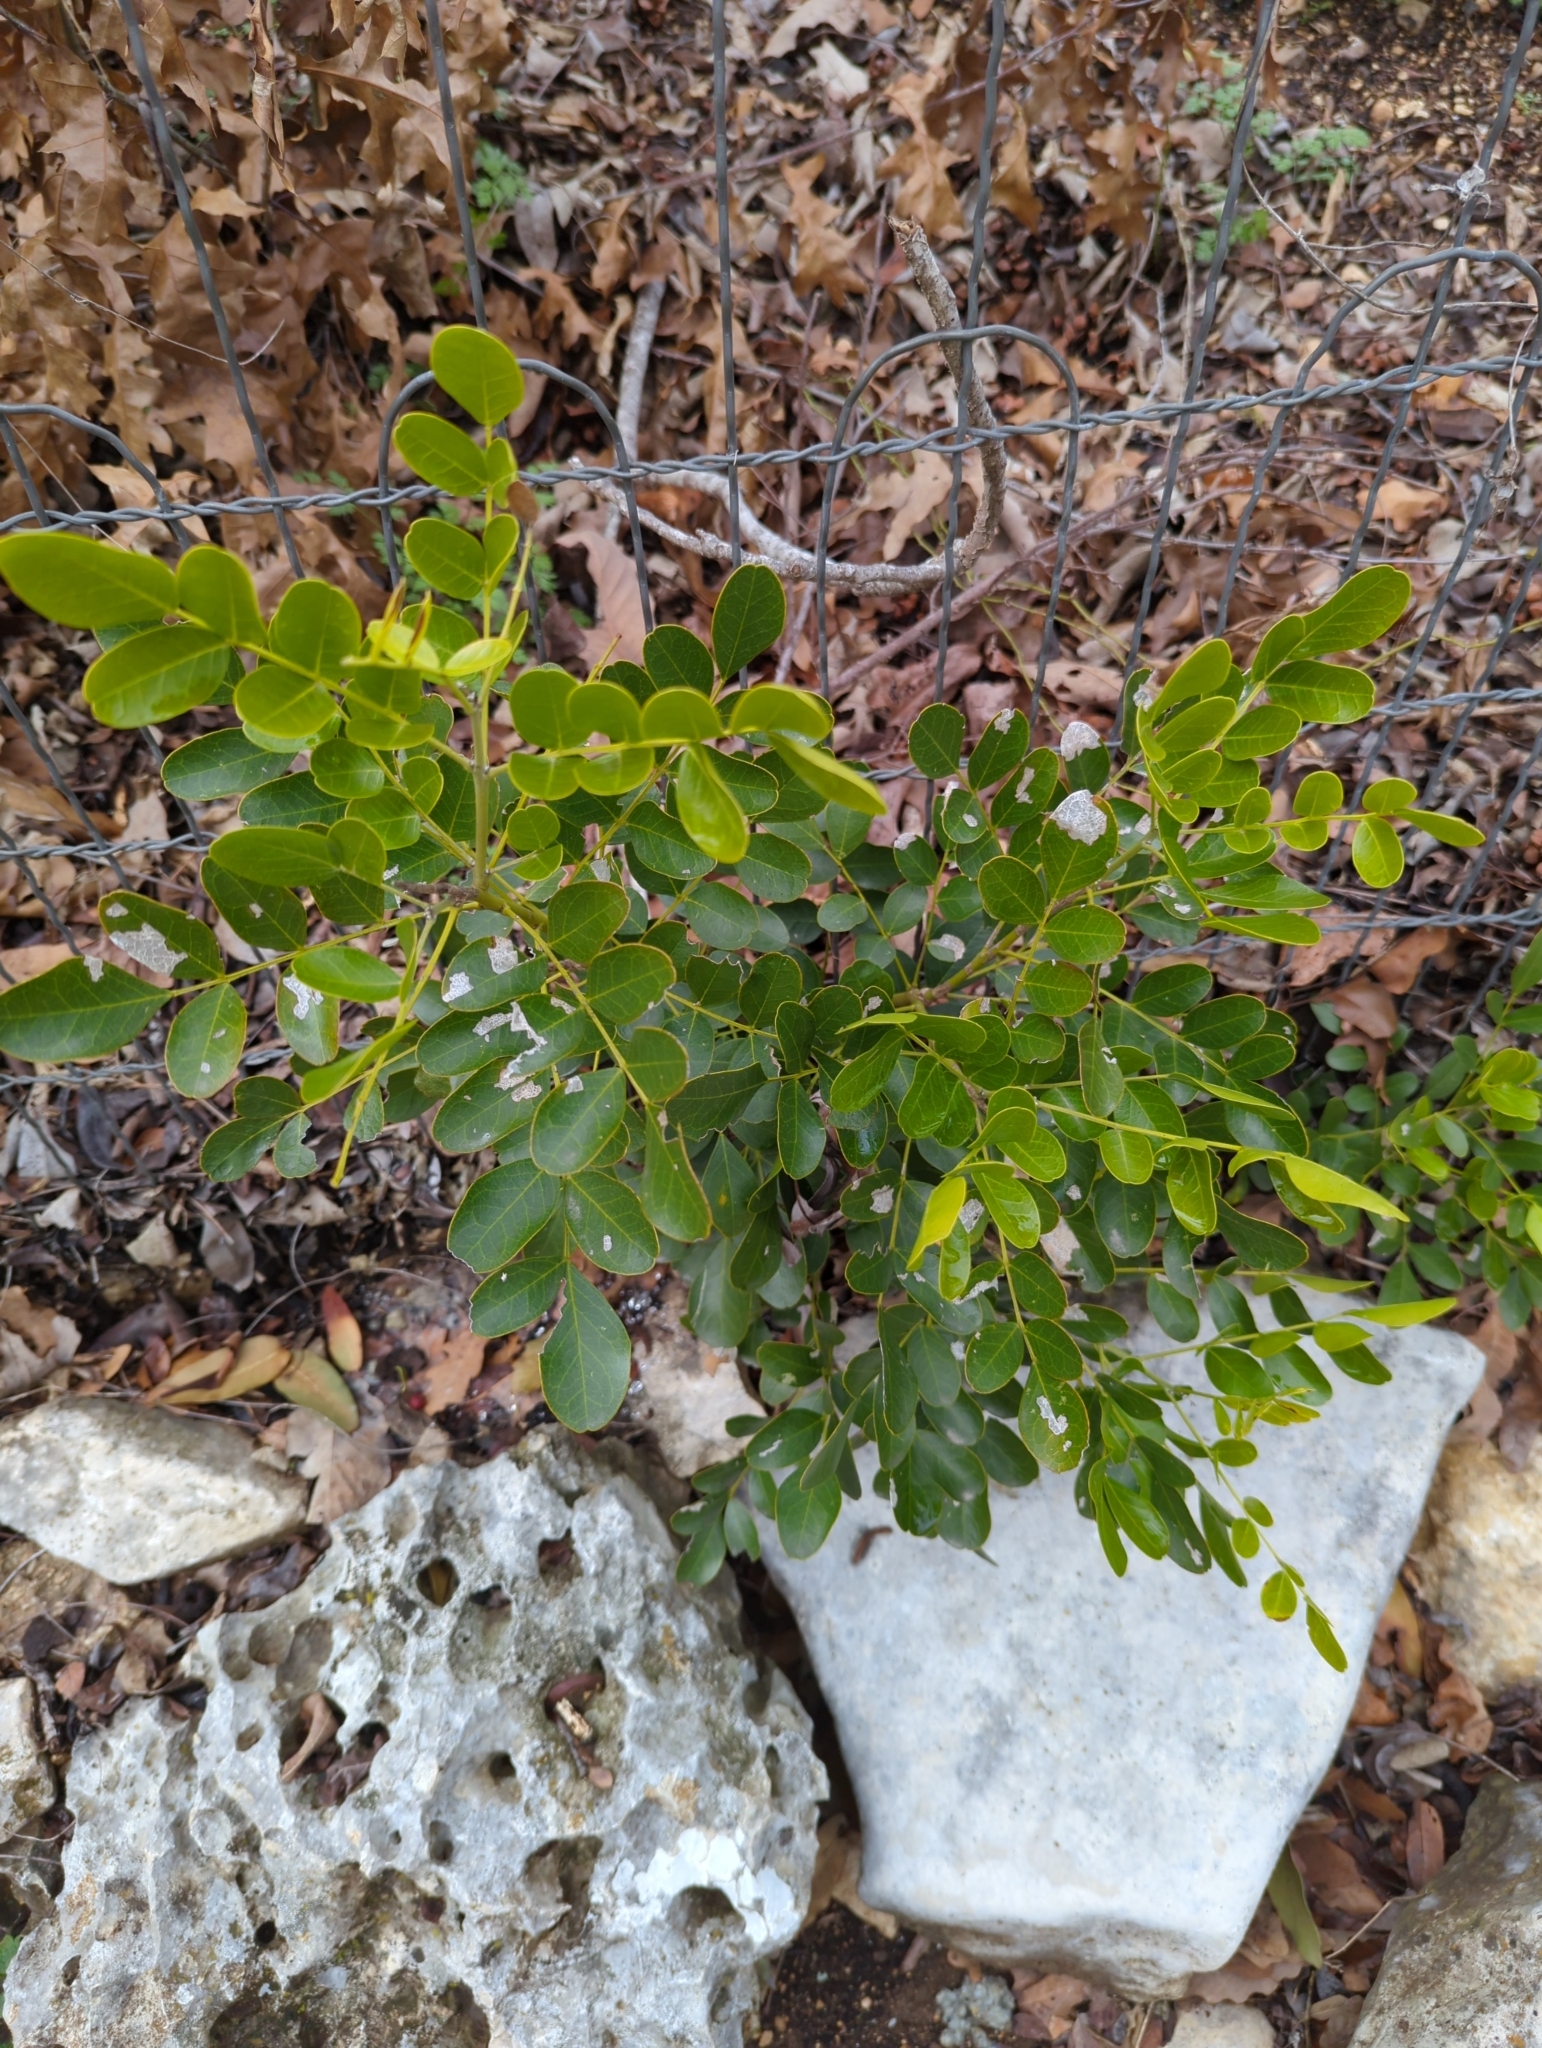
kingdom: Plantae
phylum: Tracheophyta
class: Magnoliopsida
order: Fabales
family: Fabaceae
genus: Dermatophyllum
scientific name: Dermatophyllum secundiflorum
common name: Texas-mountain-laurel
